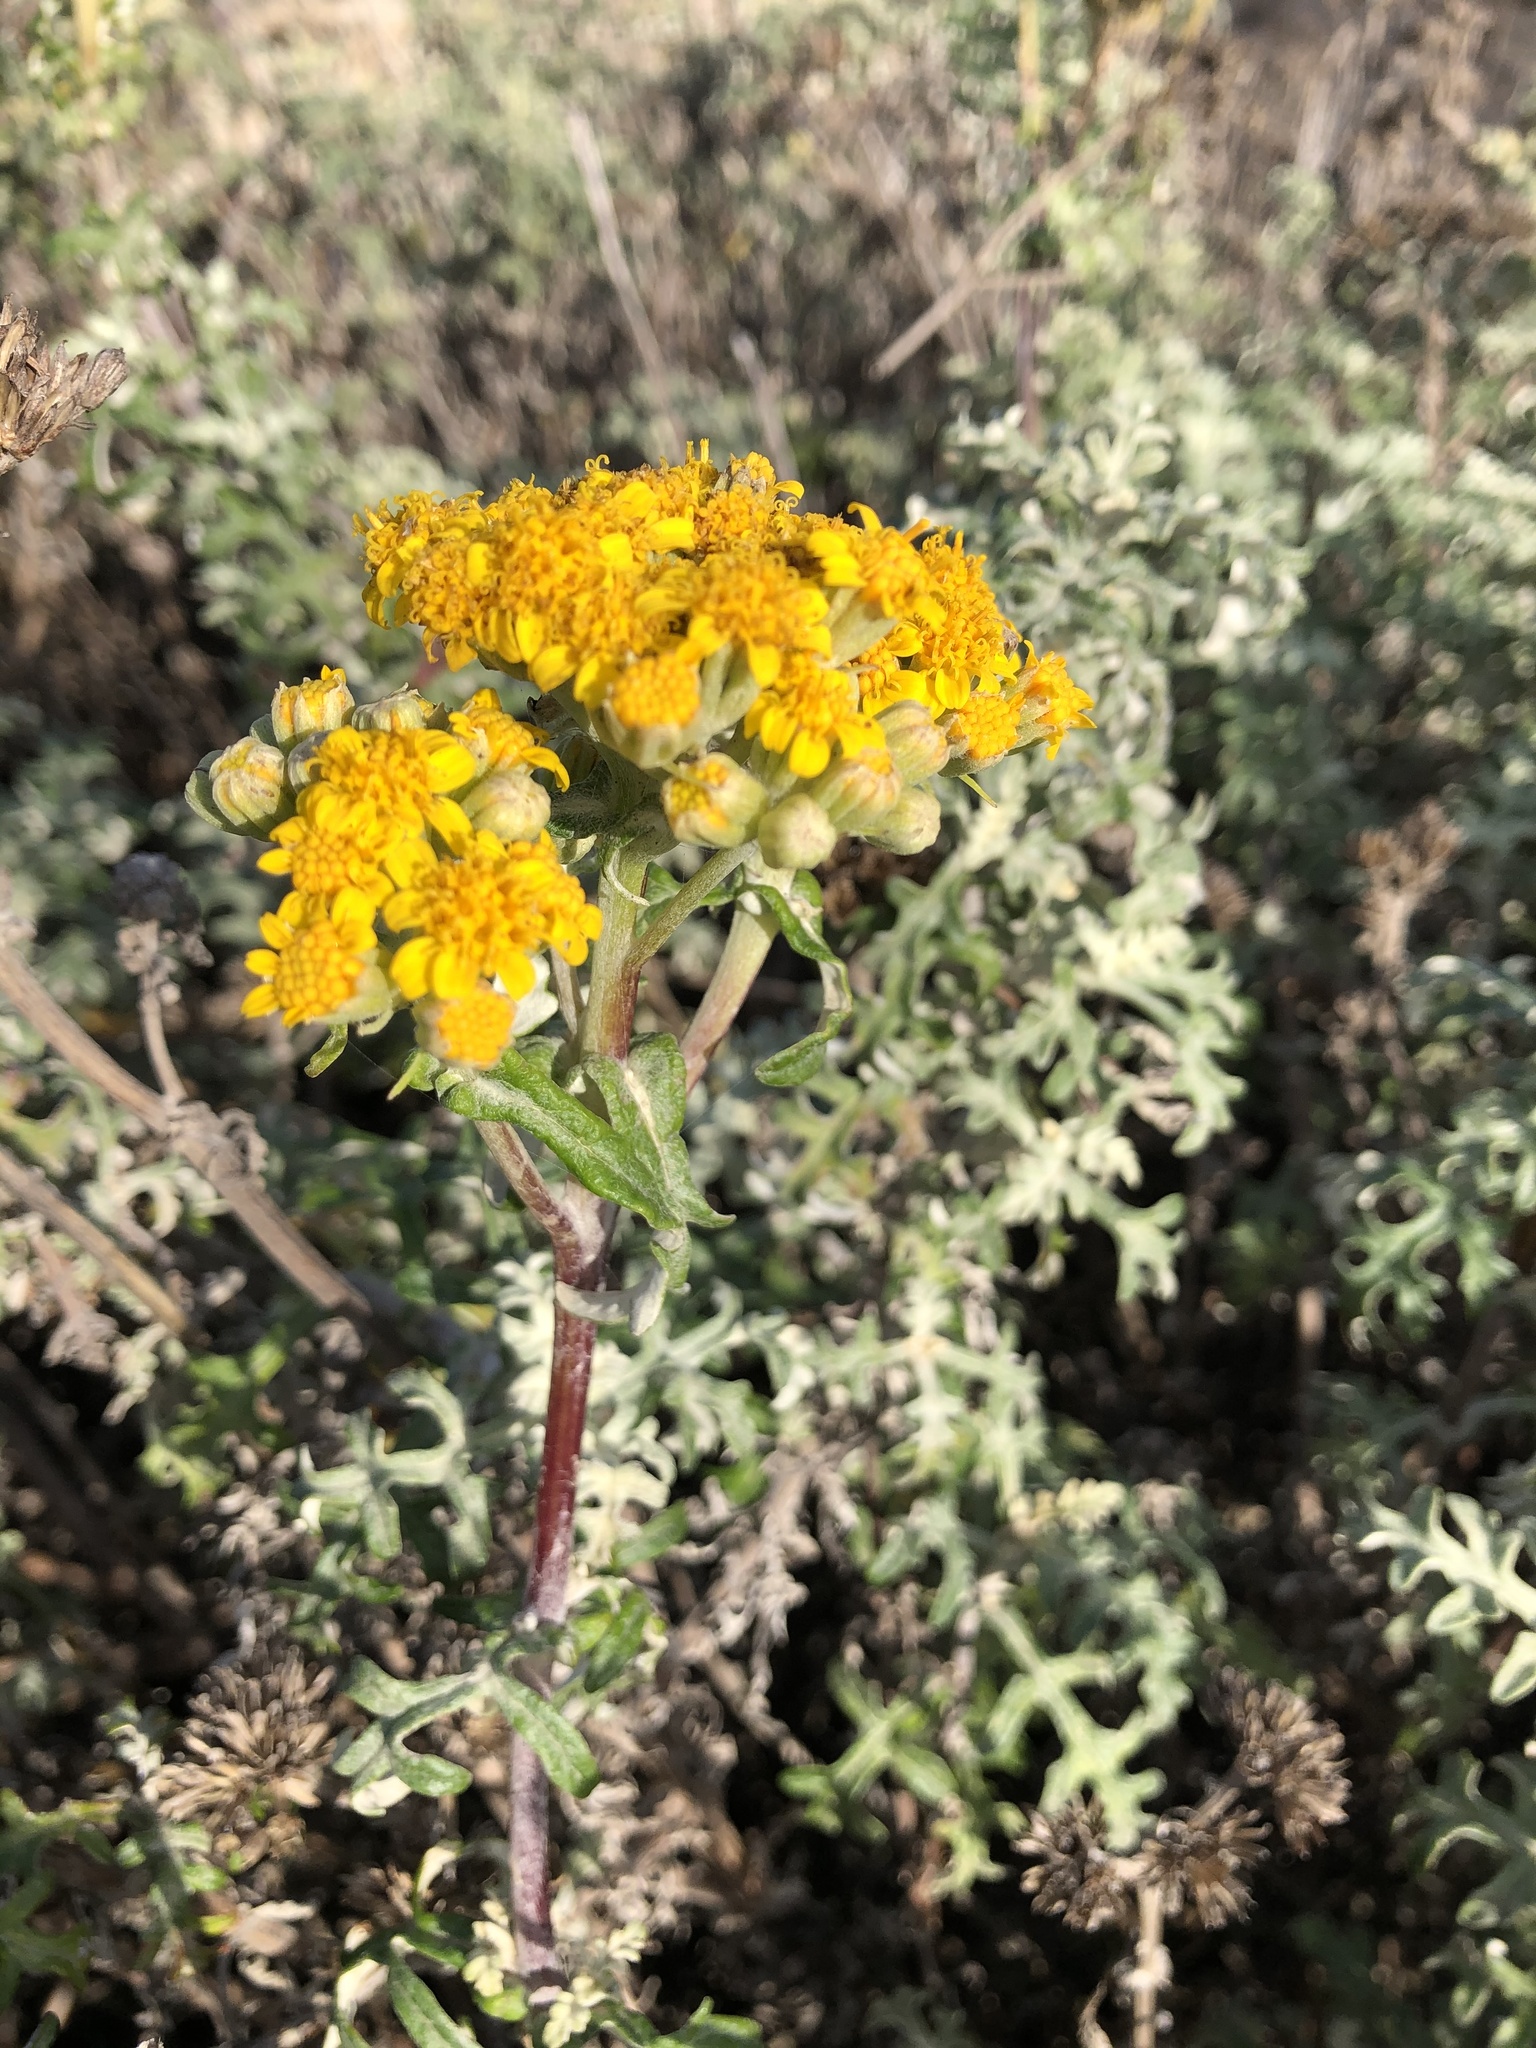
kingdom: Plantae
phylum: Tracheophyta
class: Magnoliopsida
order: Asterales
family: Asteraceae
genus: Eriophyllum
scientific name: Eriophyllum staechadifolium
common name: Lizardtail
